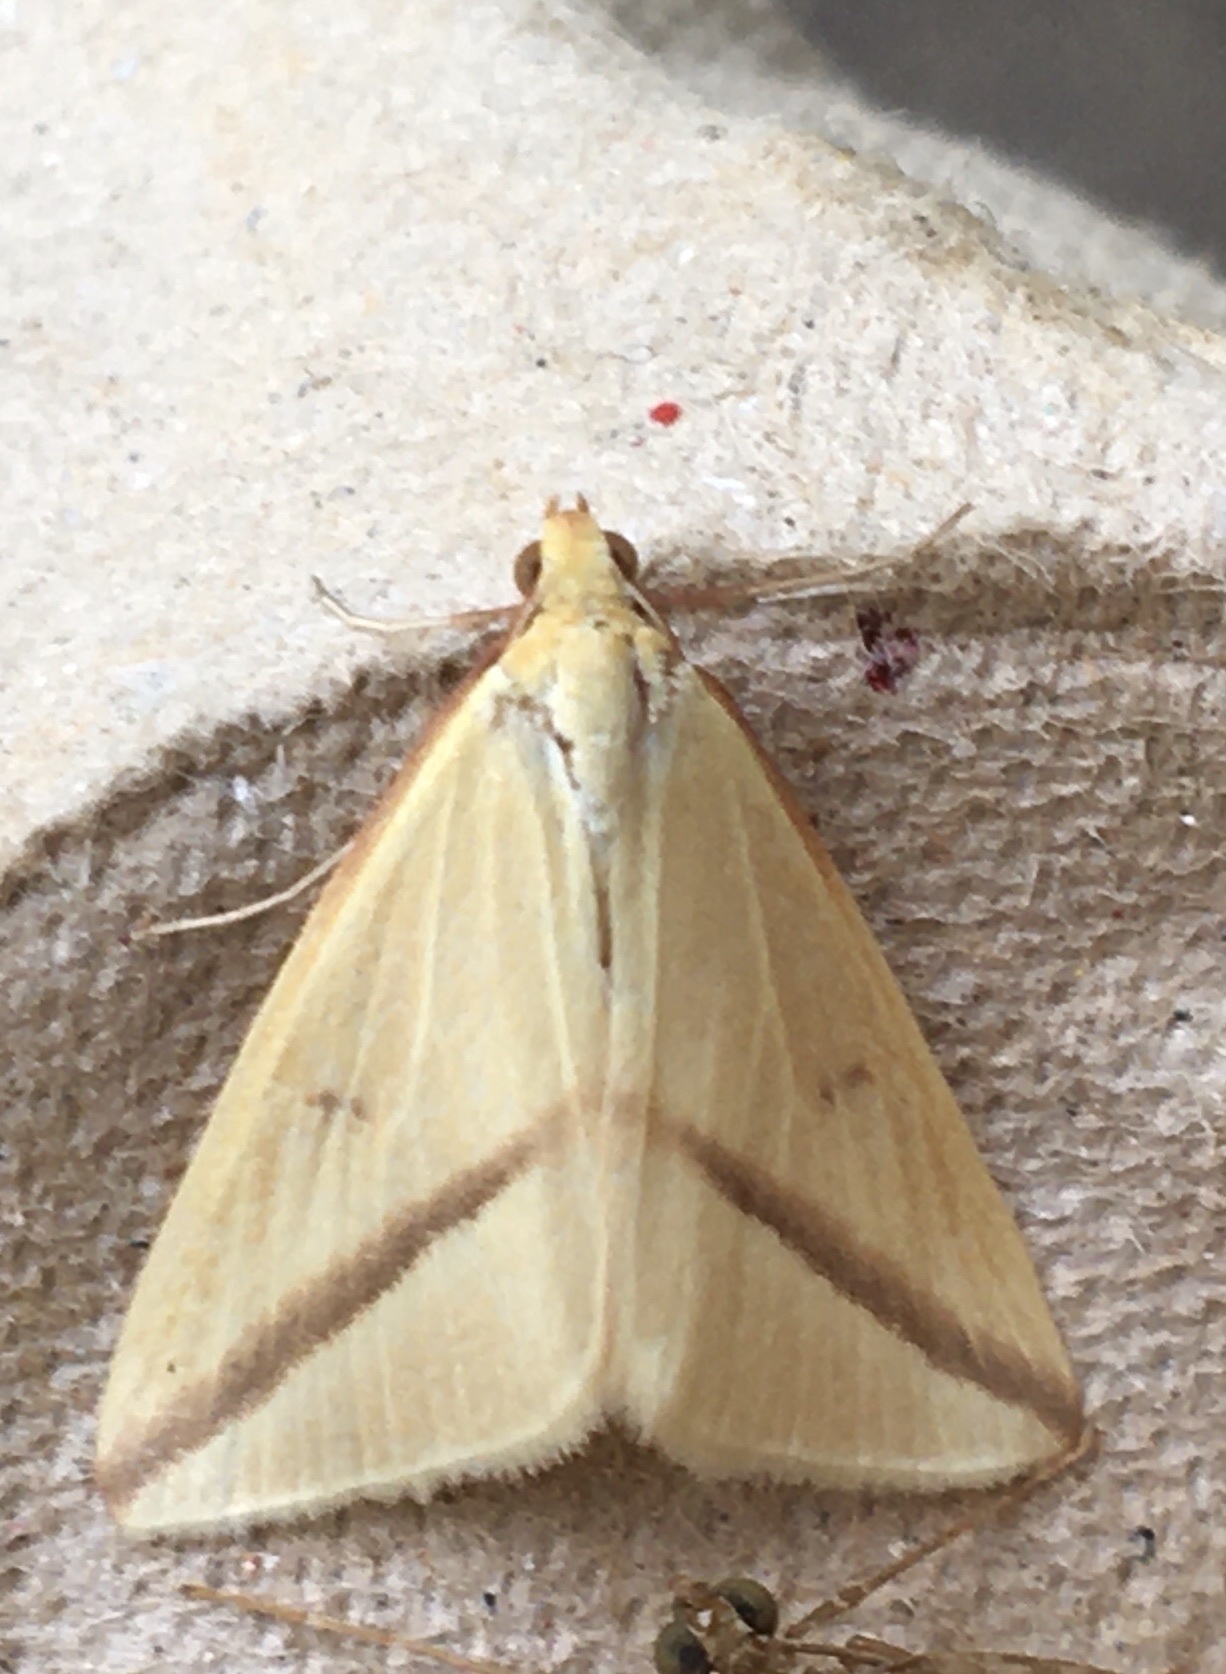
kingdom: Animalia
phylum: Arthropoda
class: Insecta
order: Lepidoptera
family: Geometridae
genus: Rhodometra
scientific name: Rhodometra sacraria
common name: Vestal
